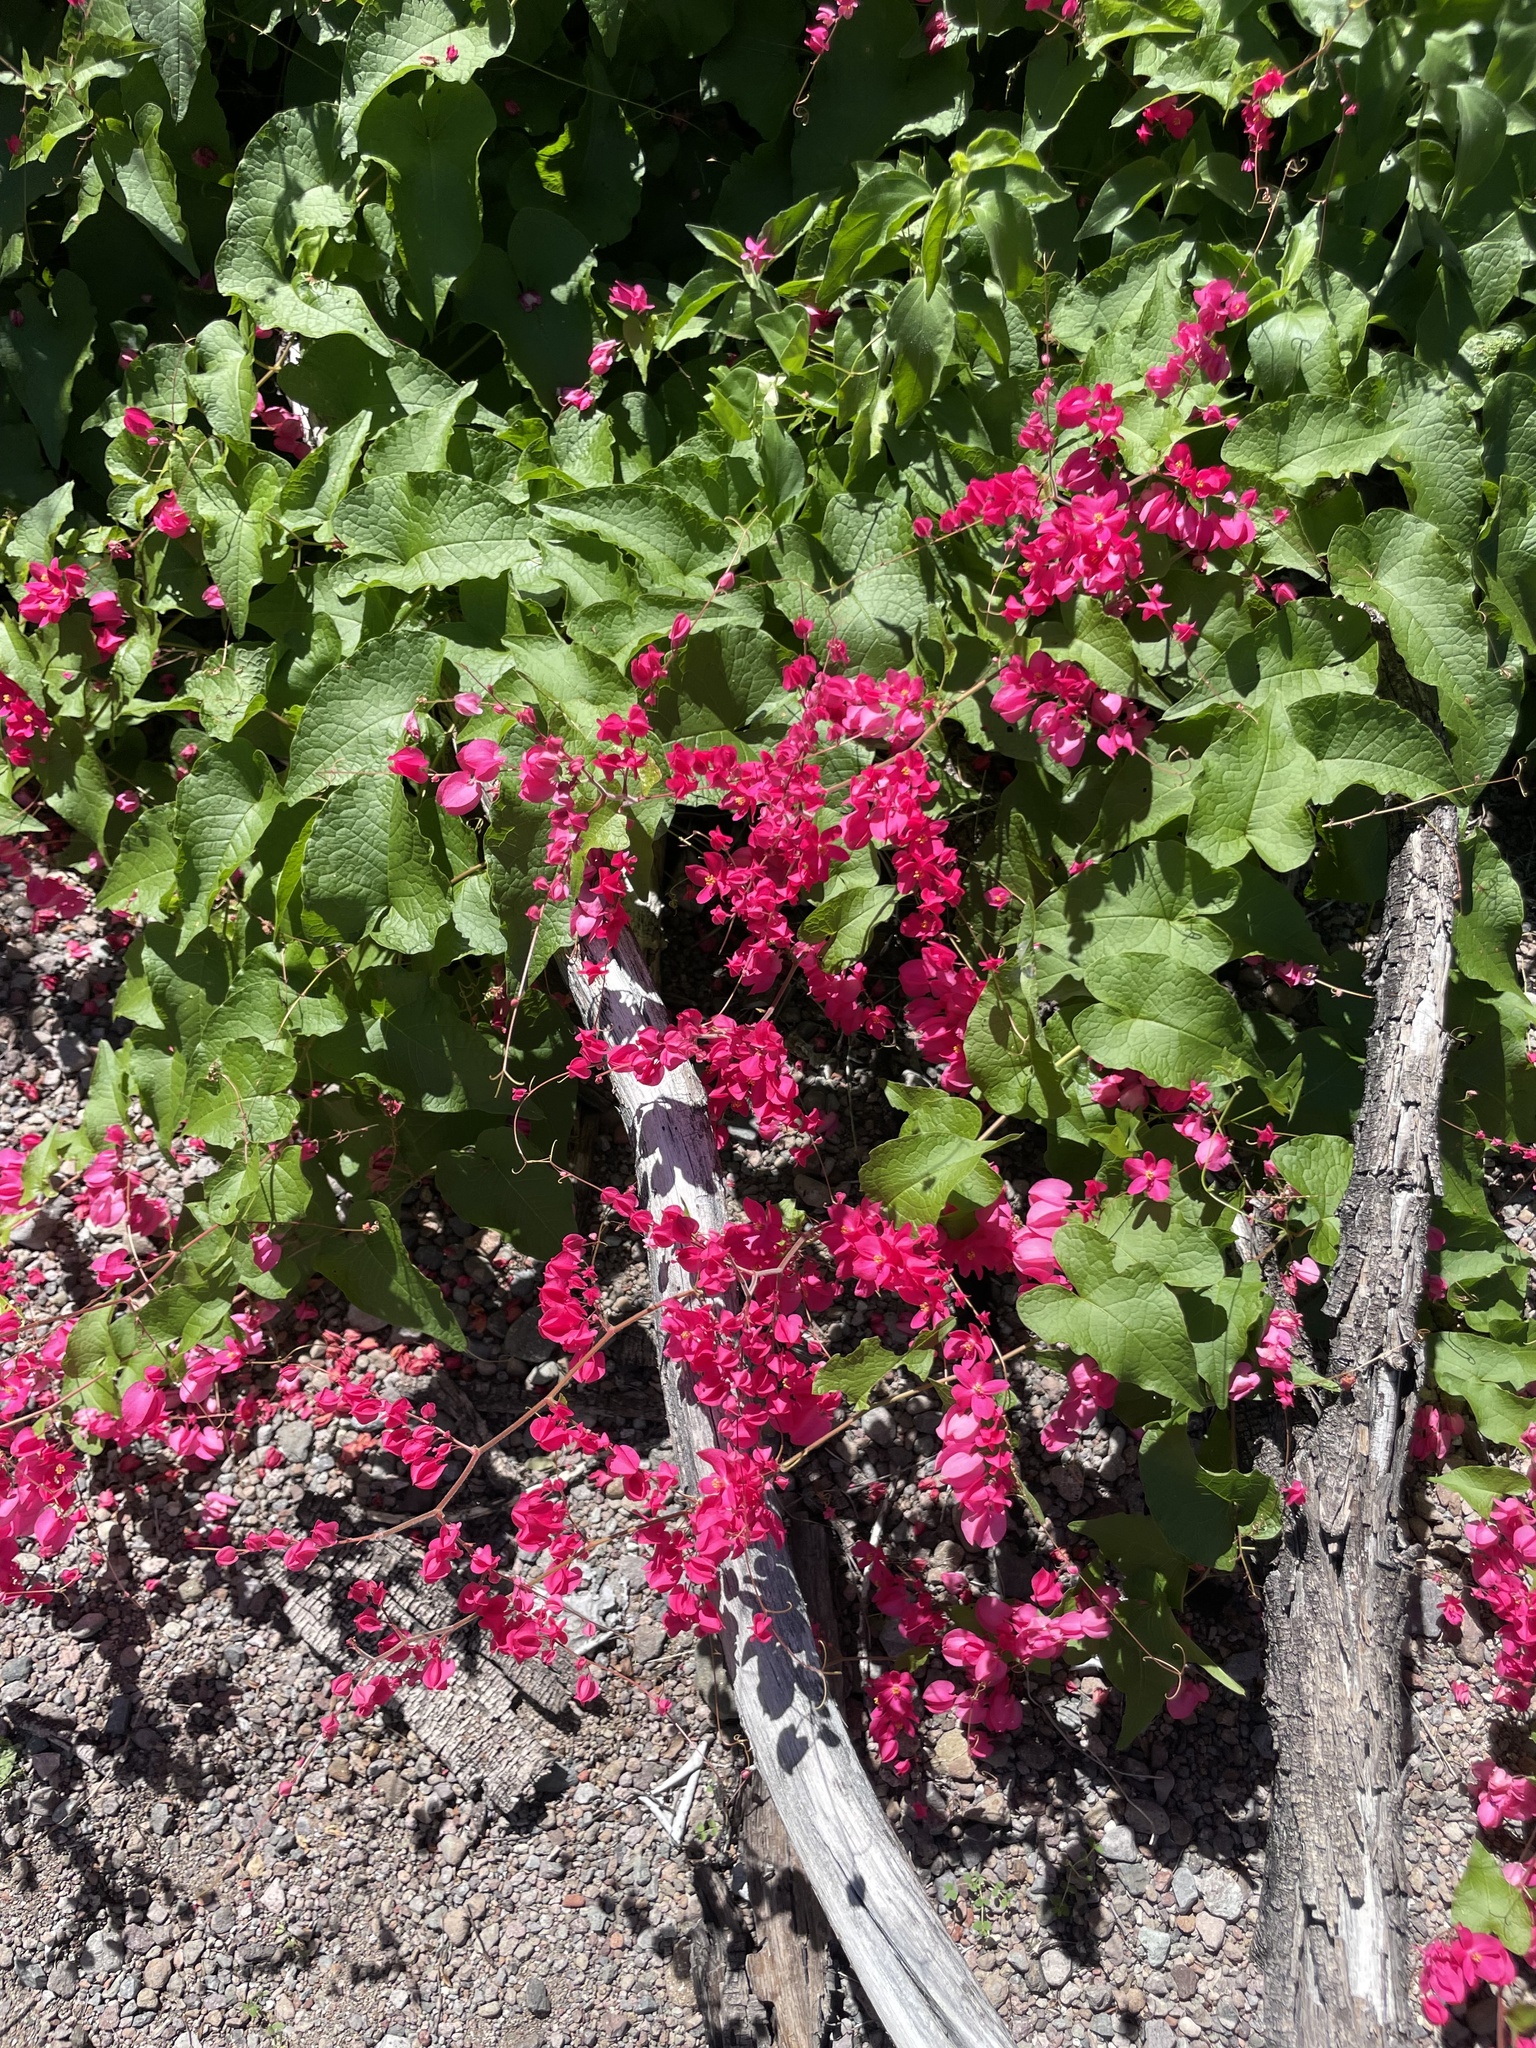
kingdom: Plantae
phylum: Tracheophyta
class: Magnoliopsida
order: Caryophyllales
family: Polygonaceae
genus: Antigonon
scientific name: Antigonon leptopus
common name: Coral vine
